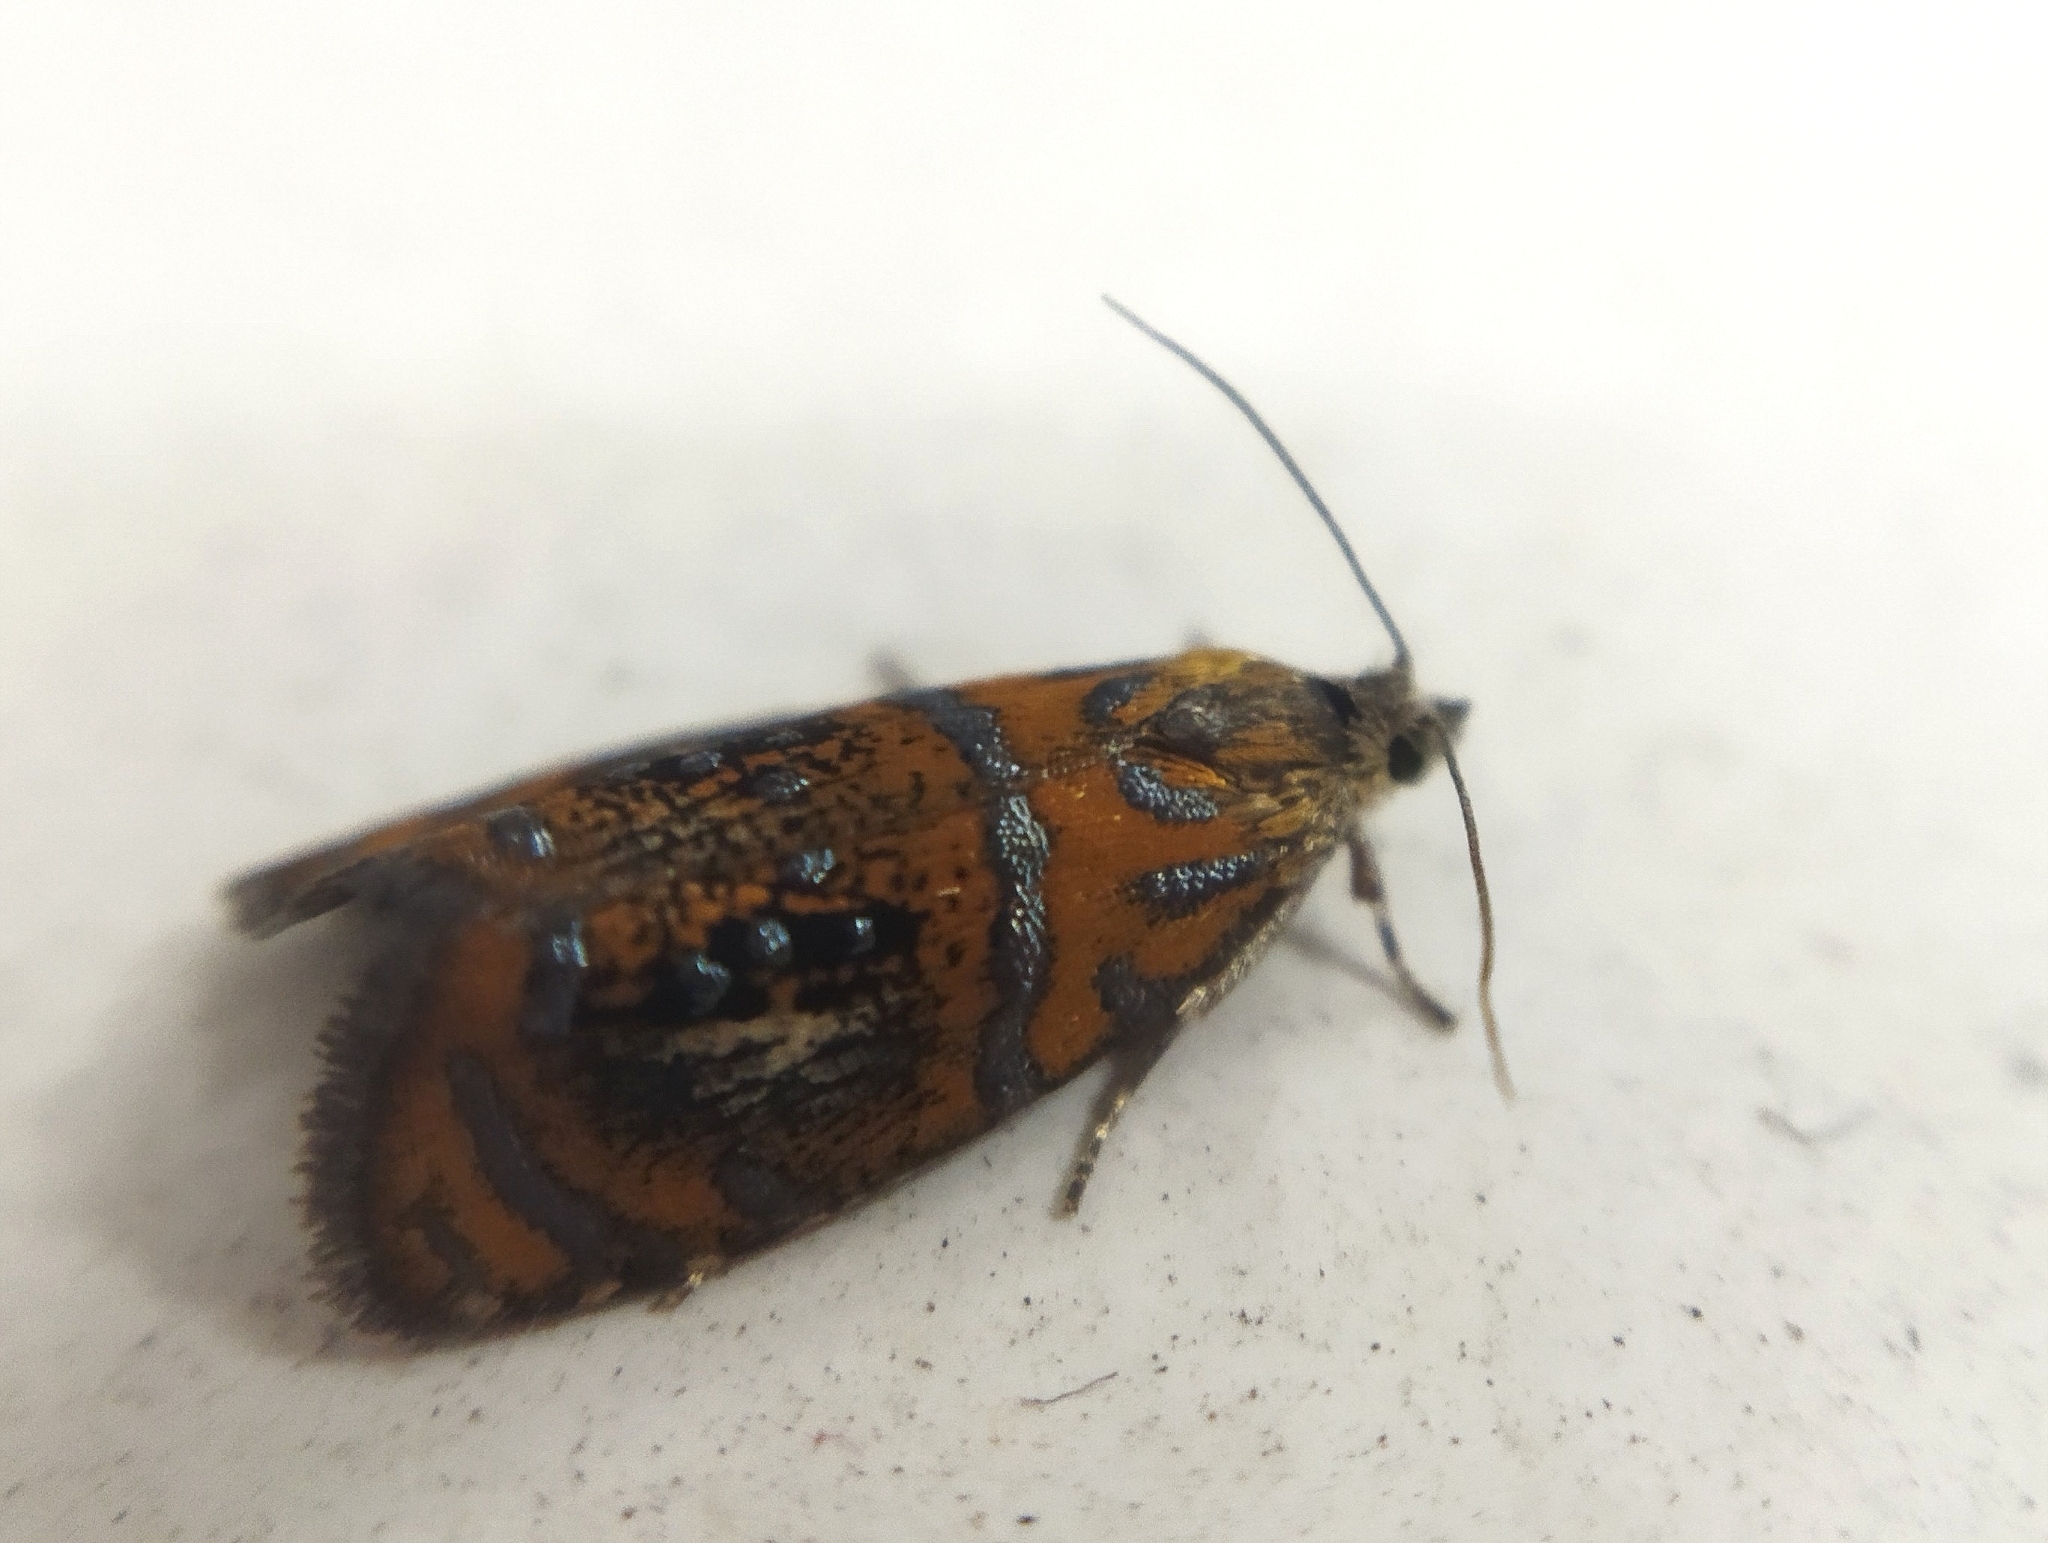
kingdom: Animalia
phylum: Arthropoda
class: Insecta
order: Lepidoptera
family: Tortricidae
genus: Olethreutes
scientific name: Olethreutes arcuella
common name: Arched marble
